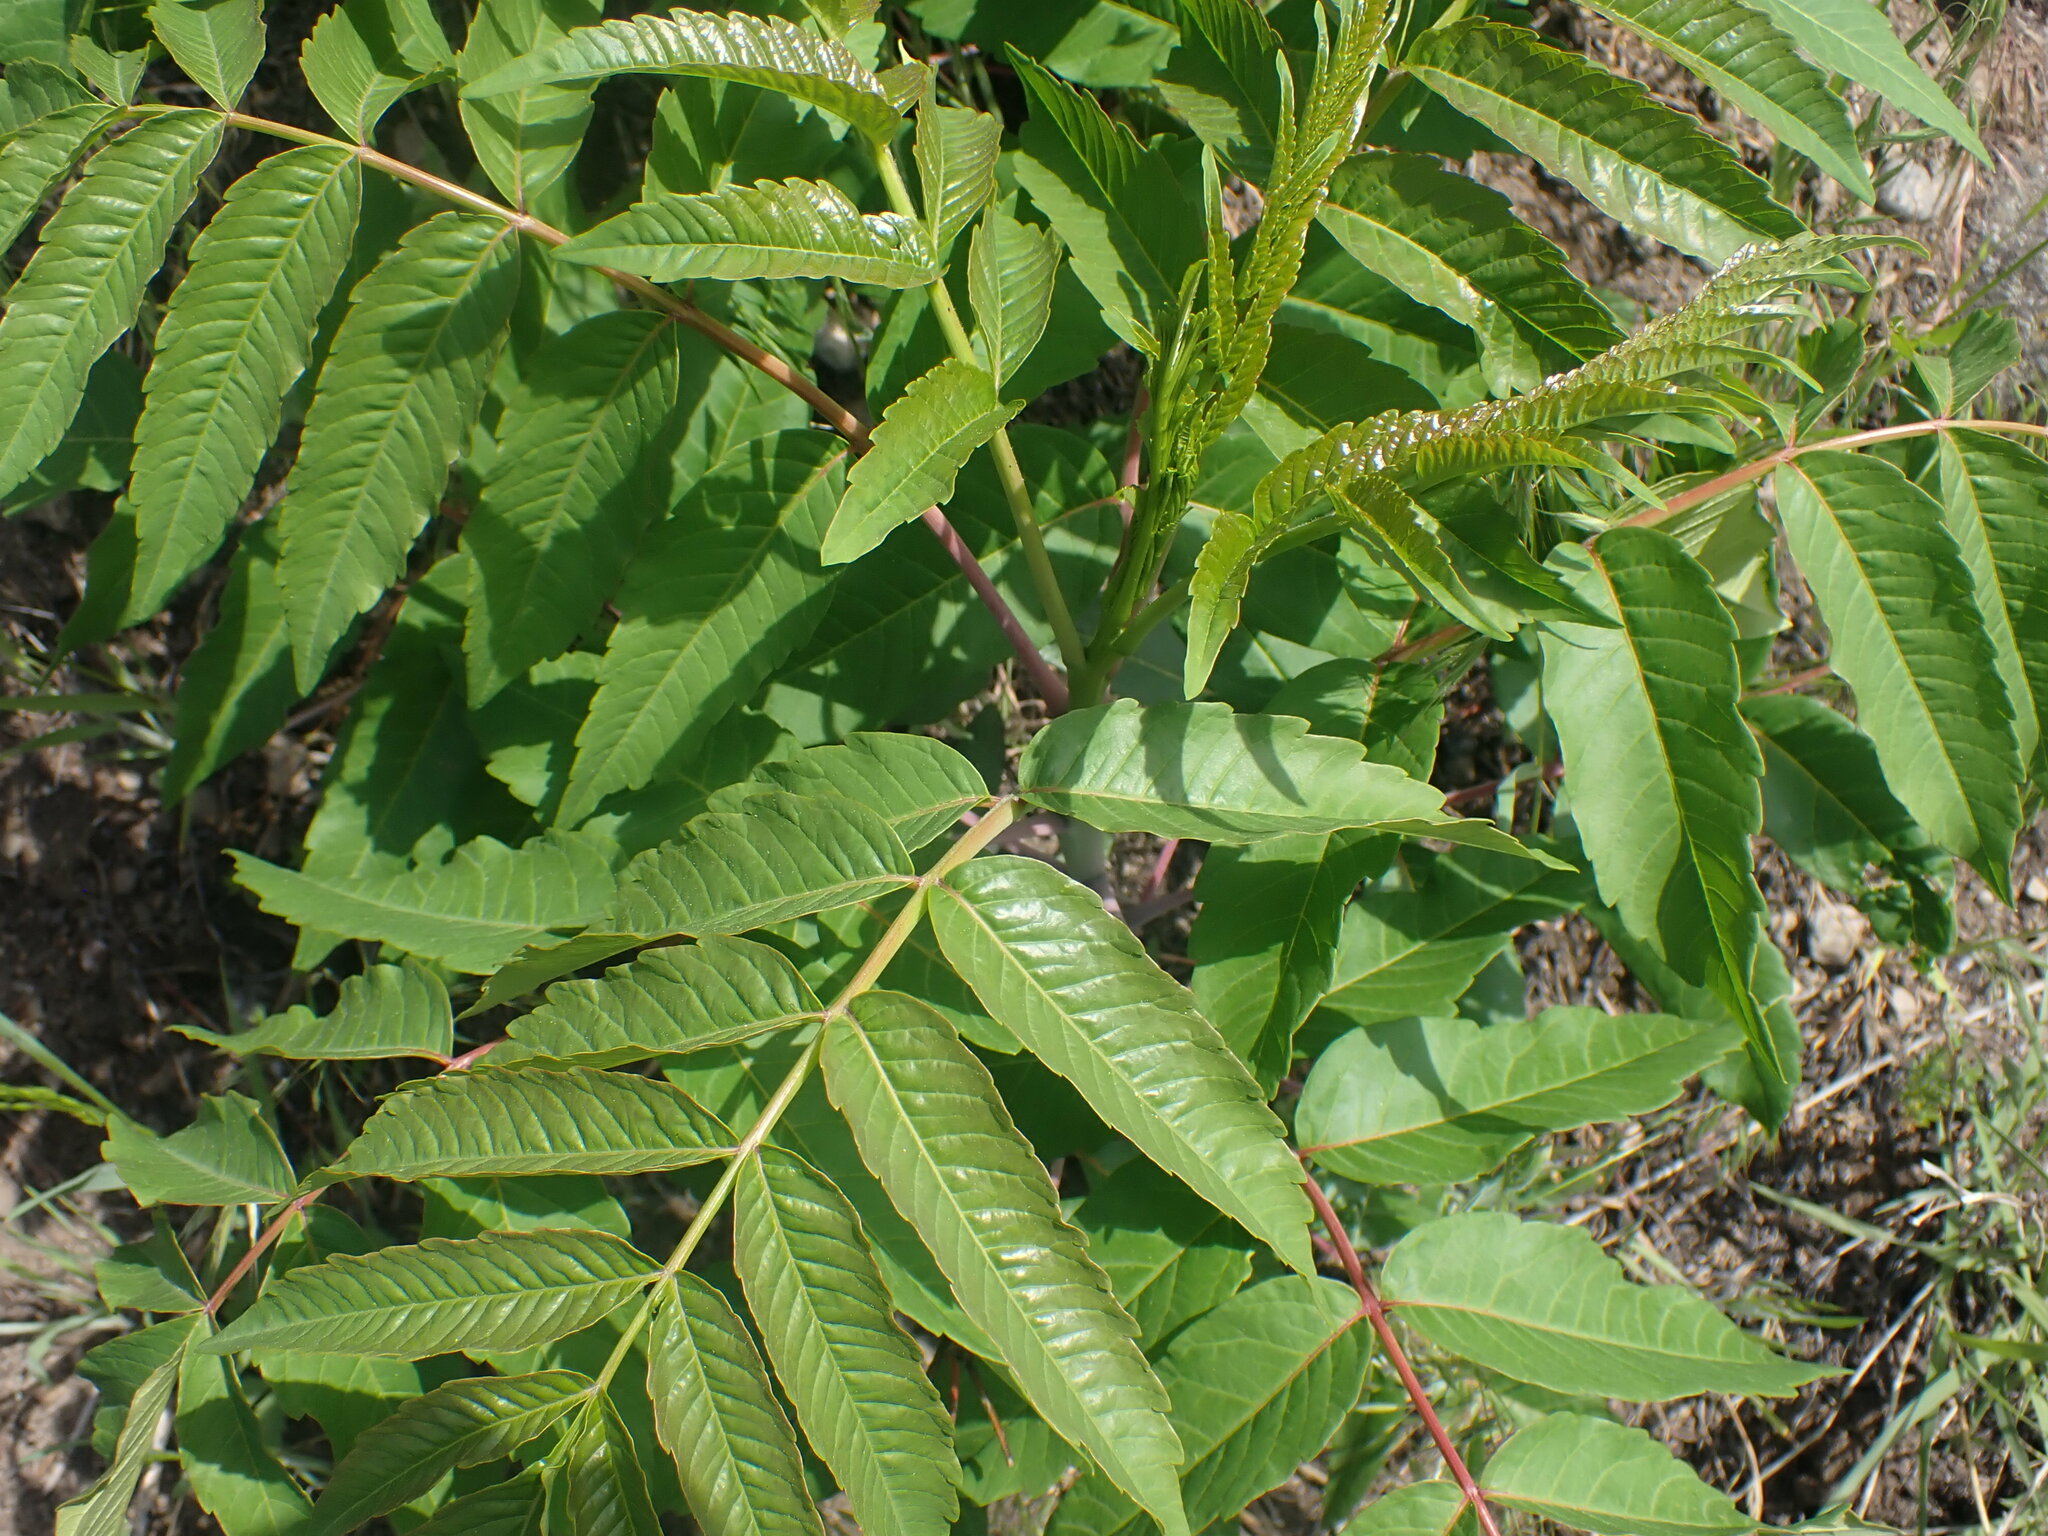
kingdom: Plantae
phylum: Tracheophyta
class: Magnoliopsida
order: Sapindales
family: Anacardiaceae
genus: Rhus
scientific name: Rhus glabra
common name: Scarlet sumac
